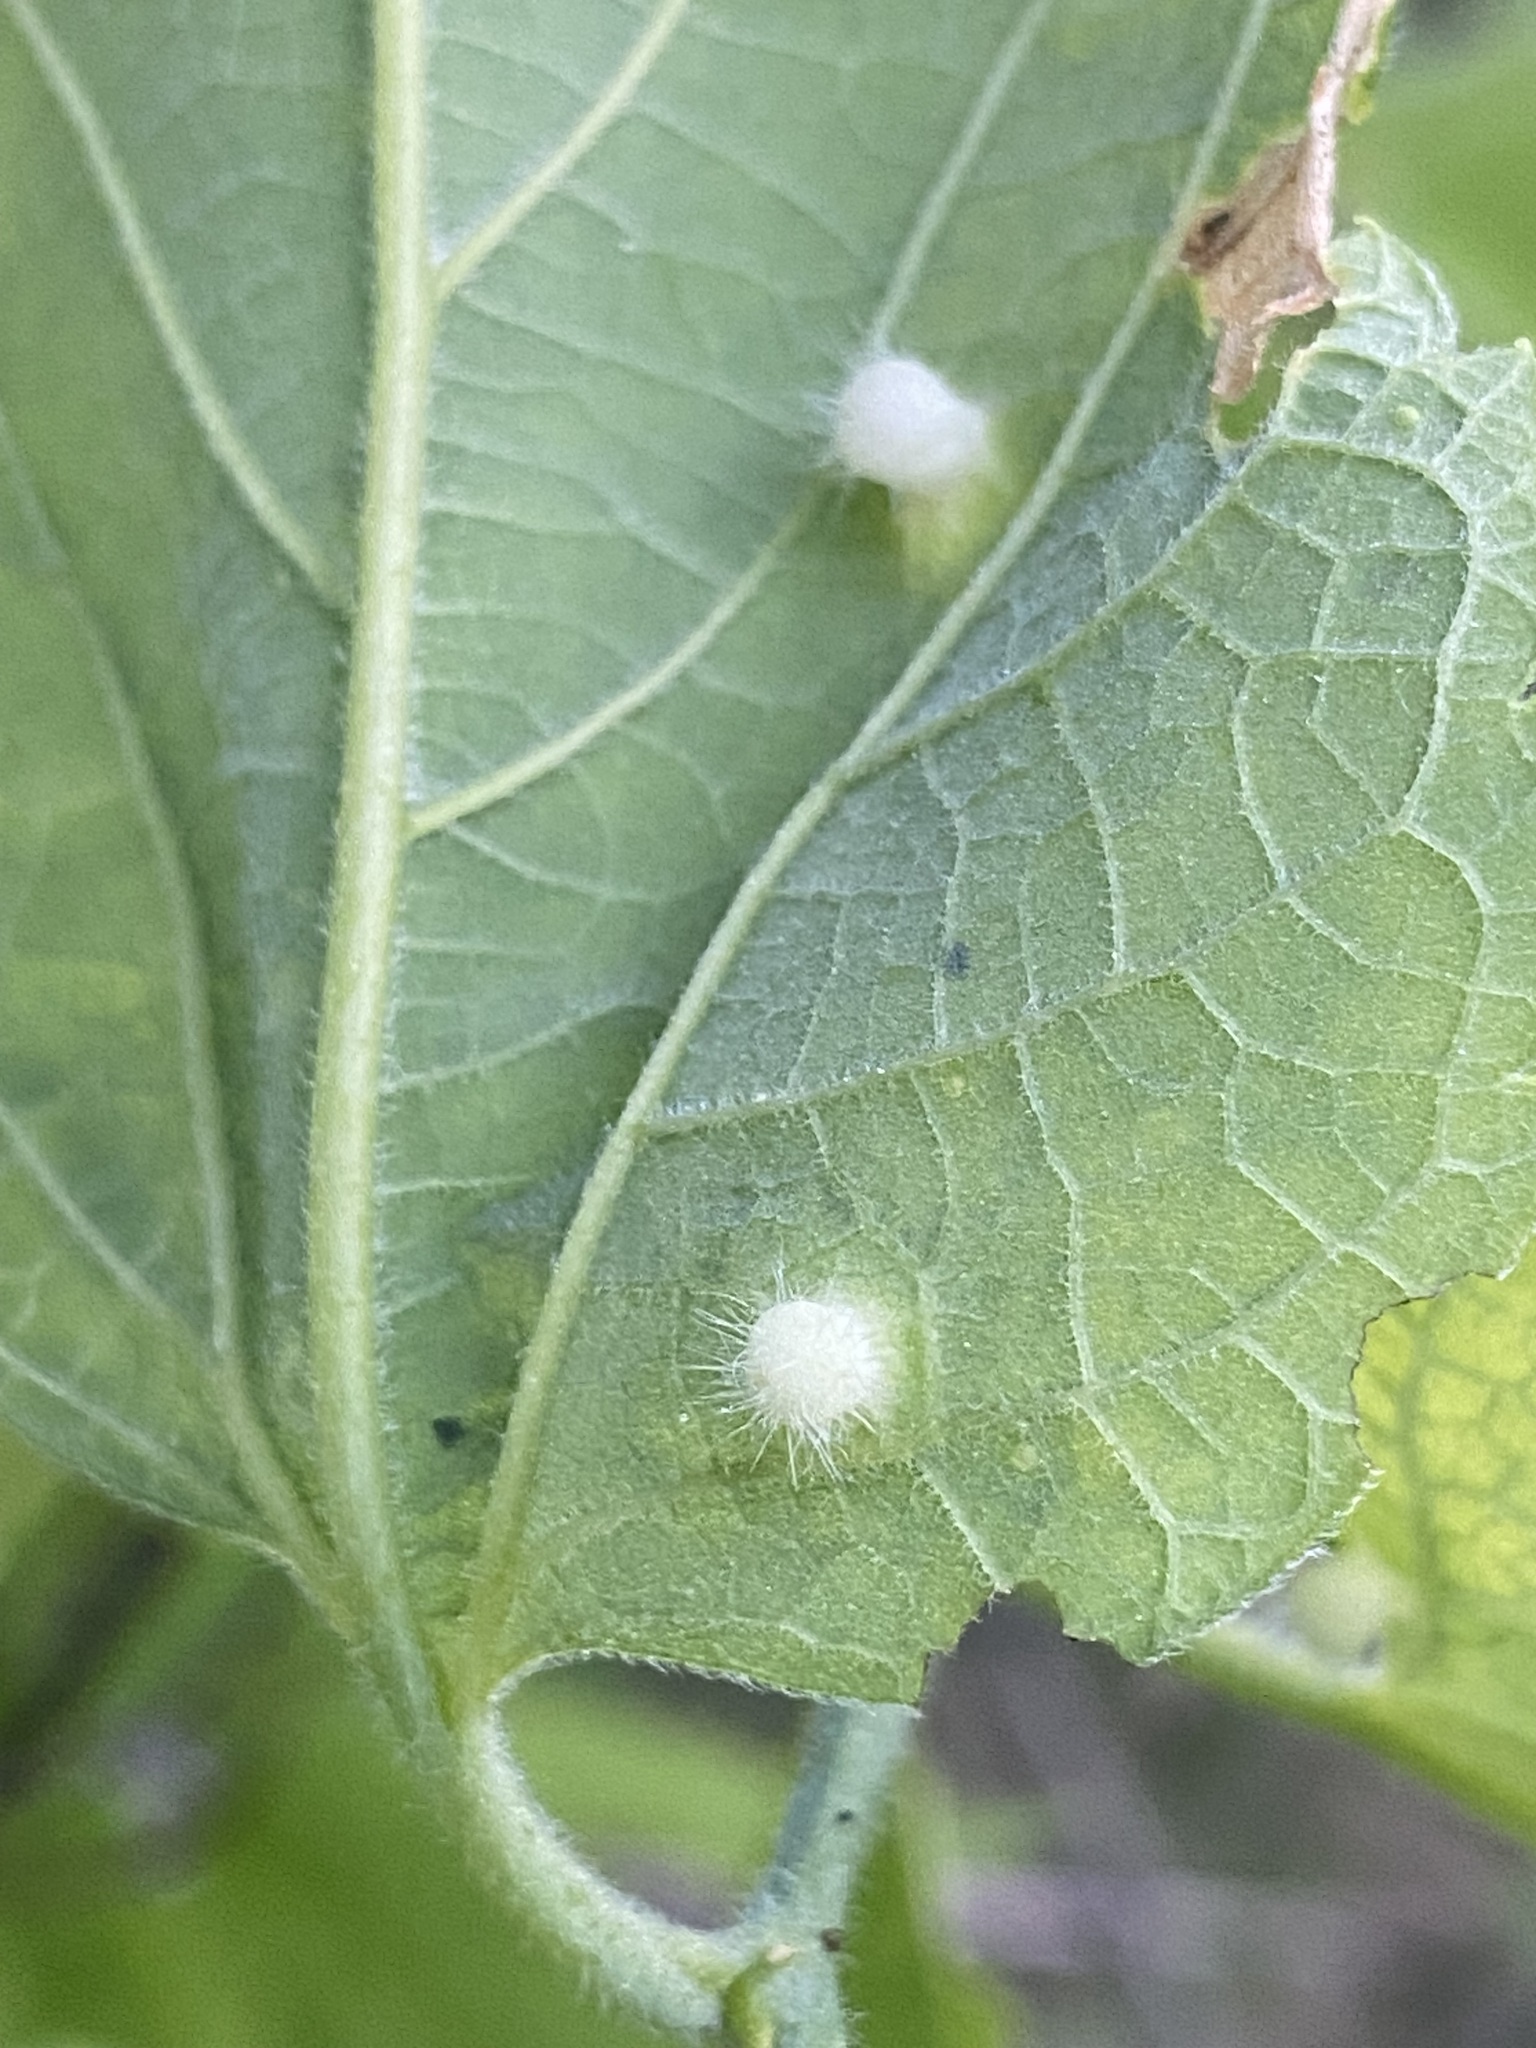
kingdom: Animalia
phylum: Arthropoda
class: Insecta
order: Hemiptera
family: Aphalaridae
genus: Pachypsylla
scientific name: Pachypsylla celtidismamma
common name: Hackberry nipplegall psyllid
